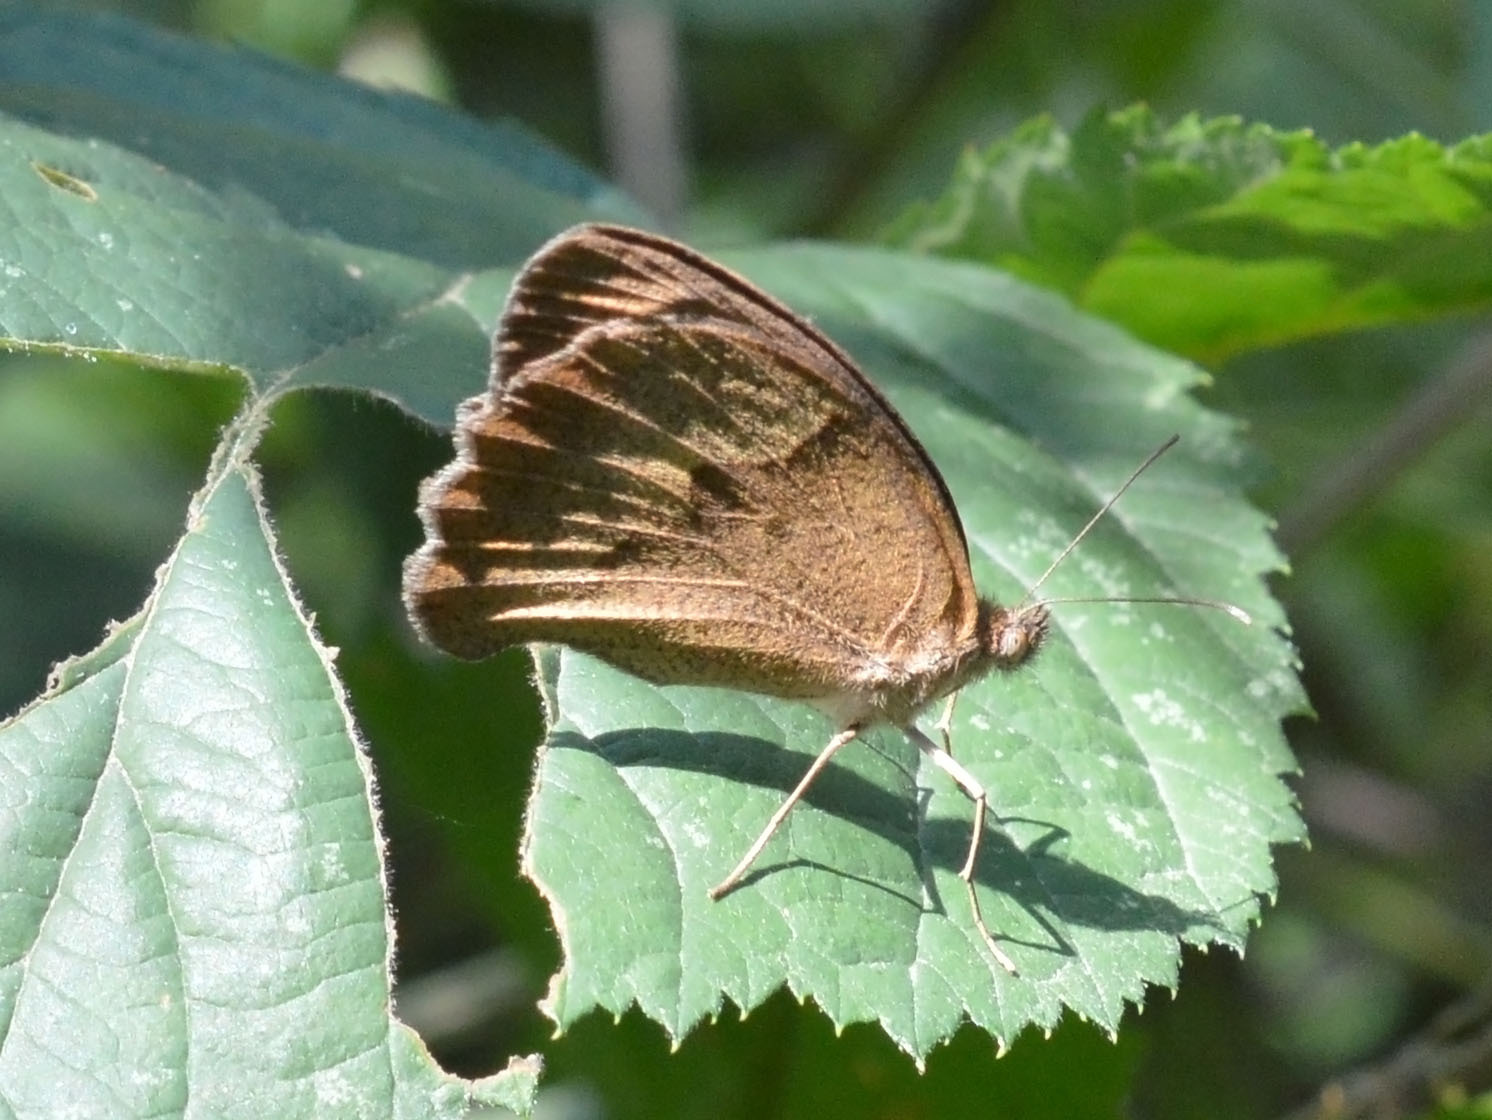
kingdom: Animalia
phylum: Arthropoda
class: Insecta
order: Lepidoptera
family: Nymphalidae
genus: Maniola
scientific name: Maniola jurtina
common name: Meadow brown
